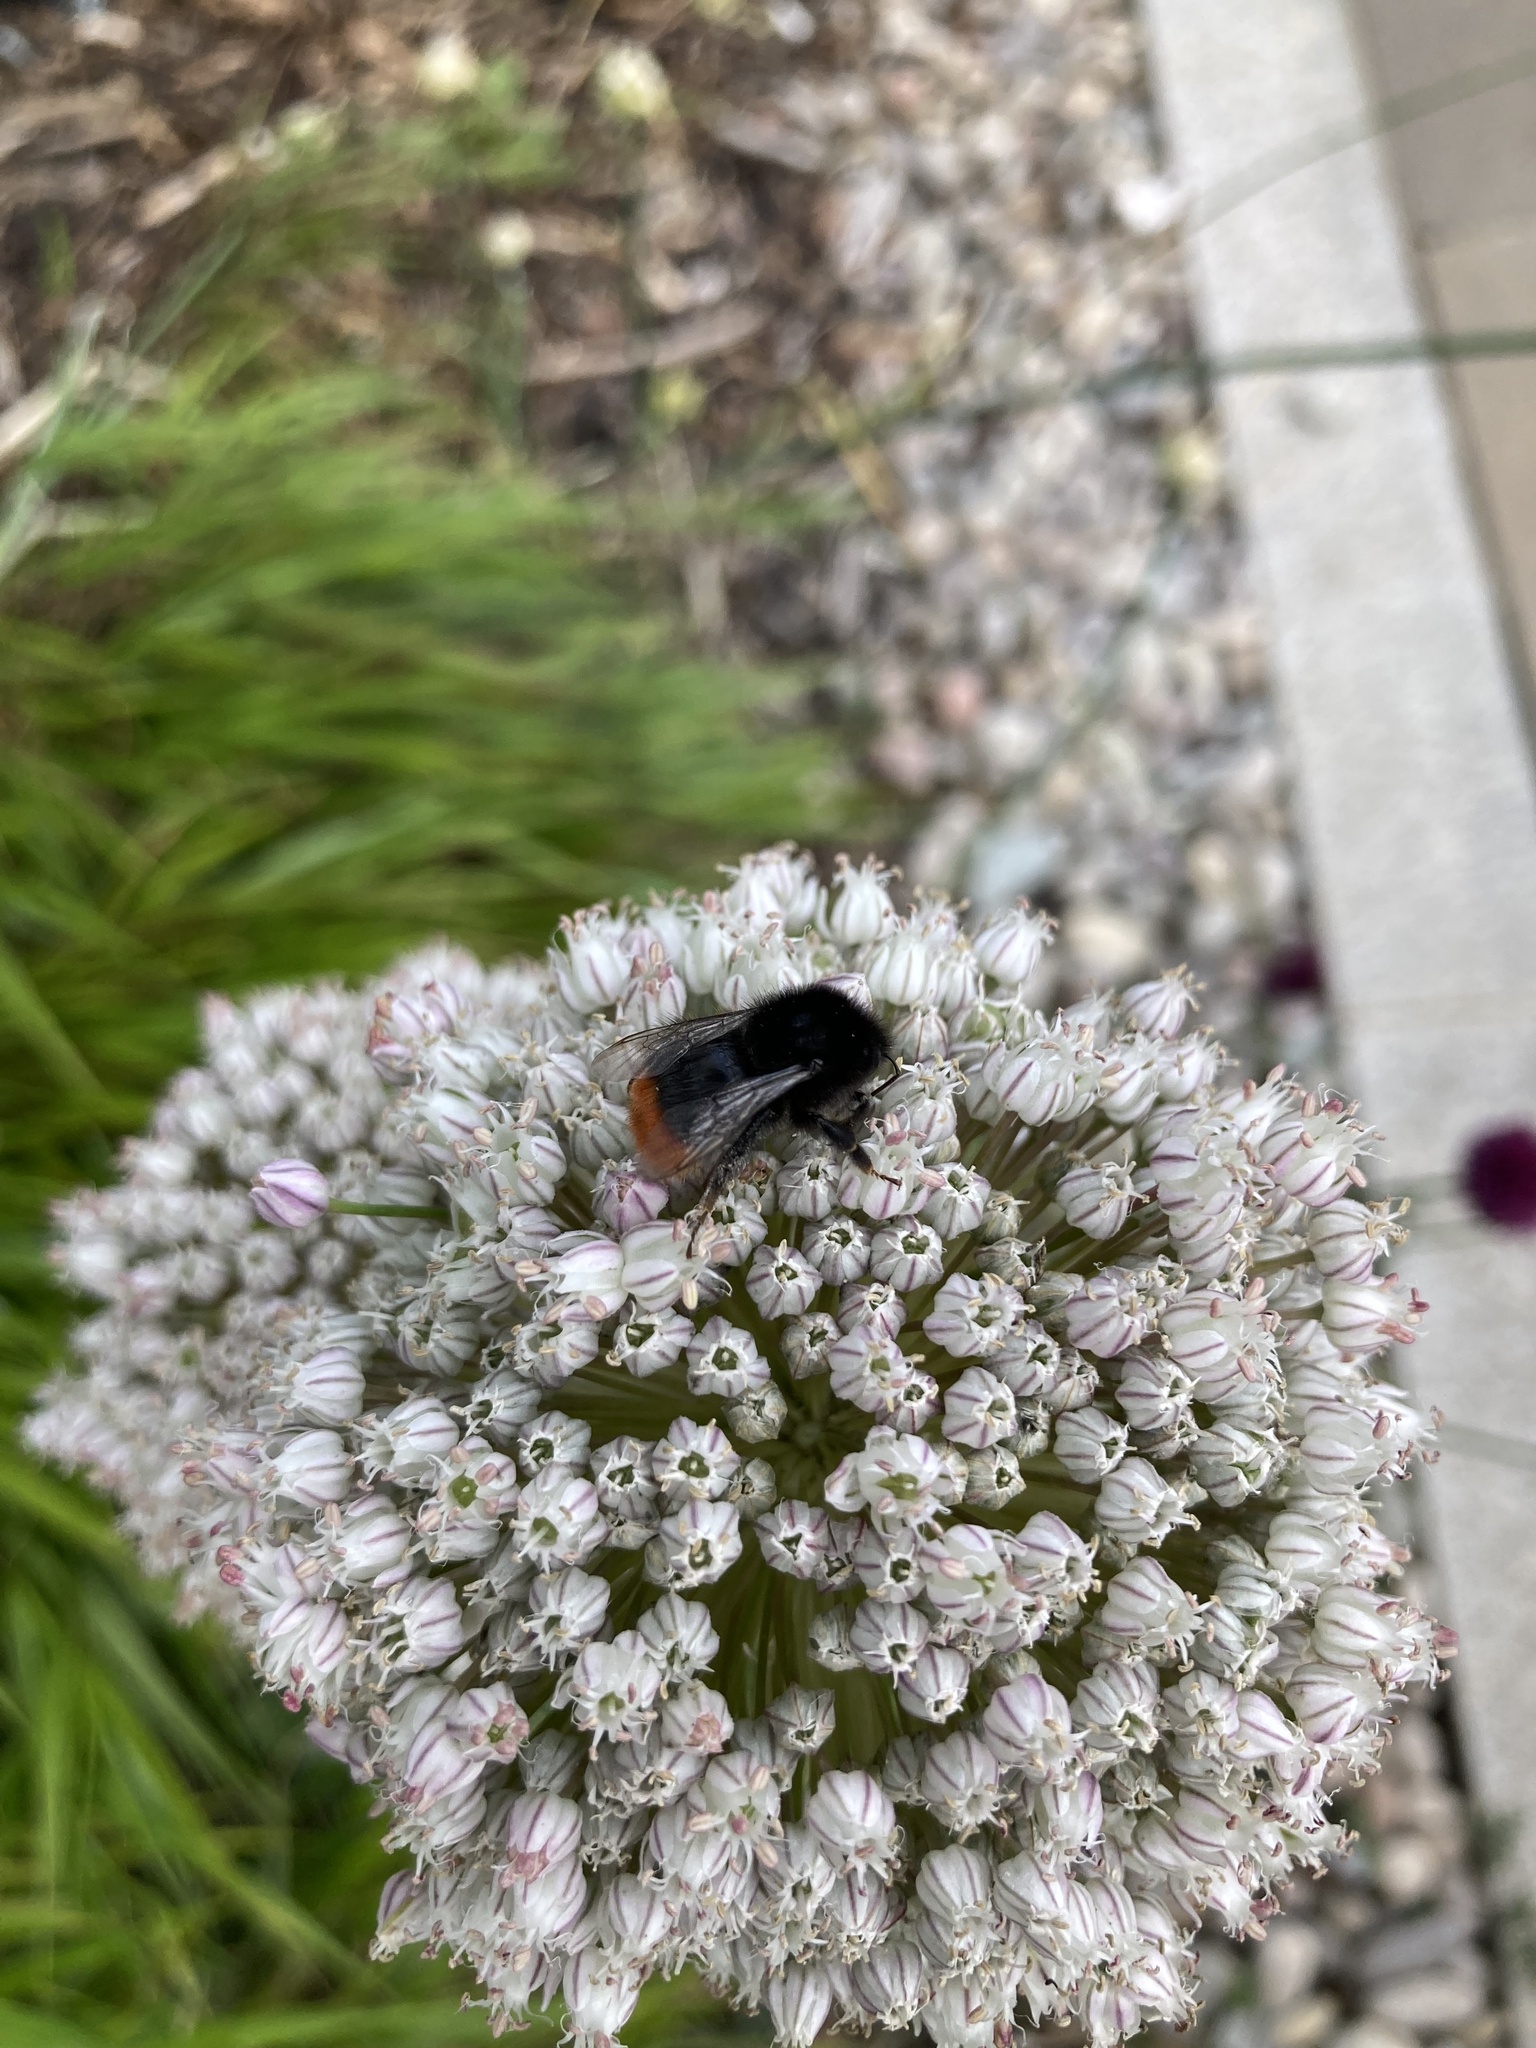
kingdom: Animalia
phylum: Arthropoda
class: Insecta
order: Hymenoptera
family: Apidae
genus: Bombus
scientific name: Bombus lapidarius
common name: Large red-tailed humble-bee
